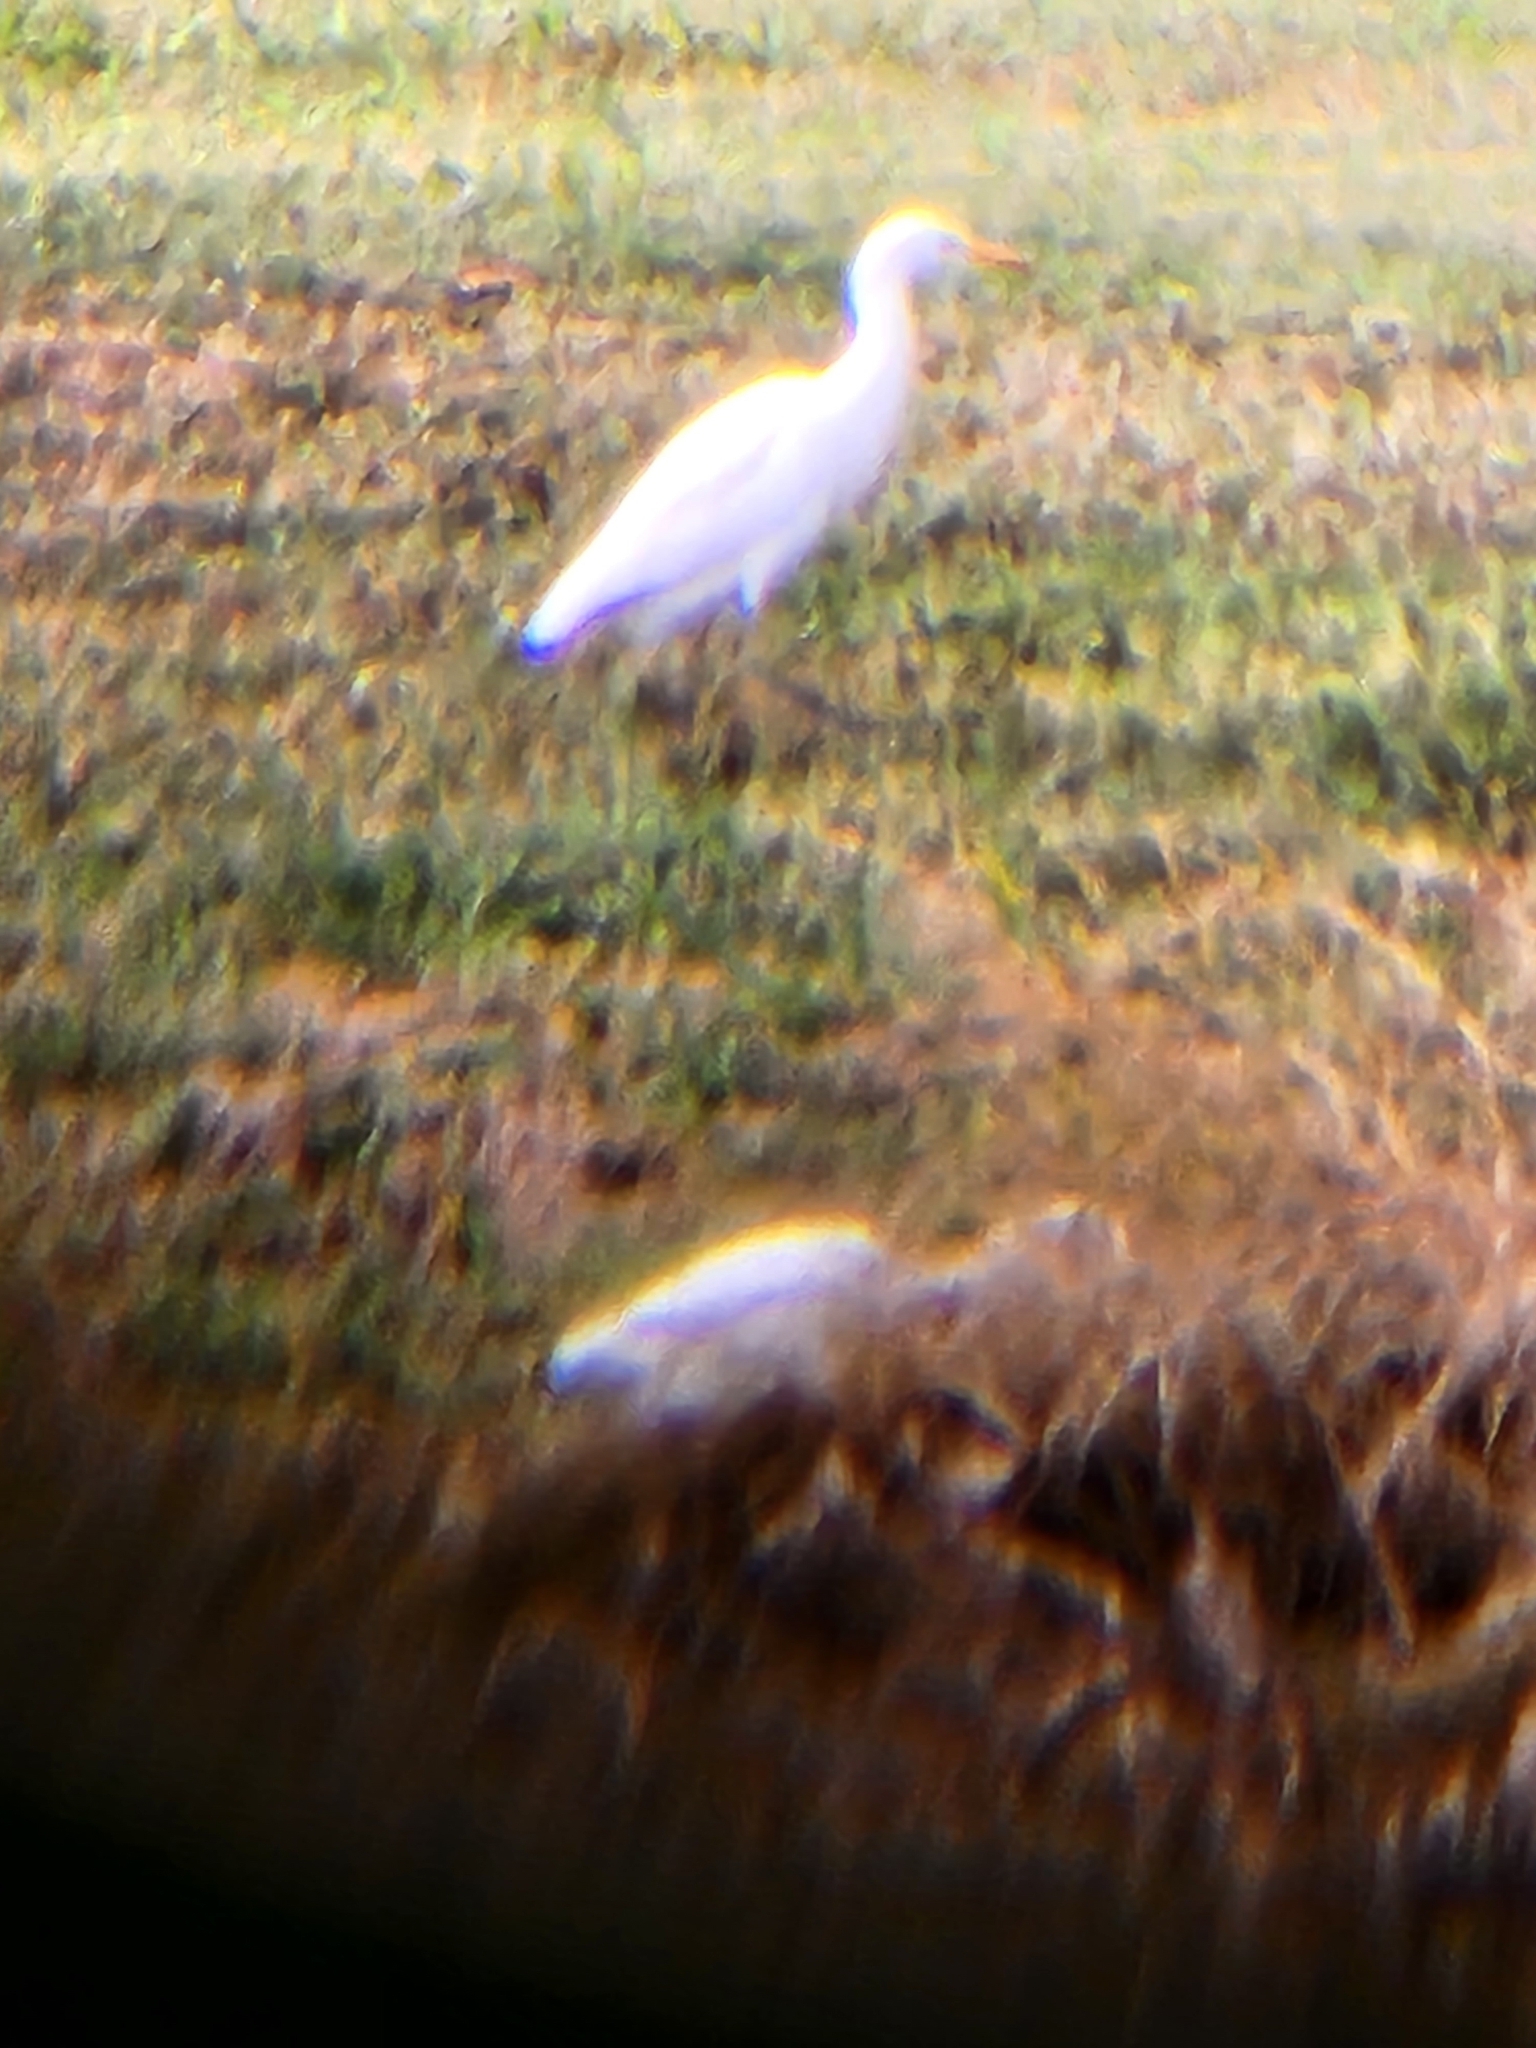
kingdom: Animalia
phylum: Chordata
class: Aves
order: Pelecaniformes
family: Ardeidae
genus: Bubulcus
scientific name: Bubulcus ibis
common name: Cattle egret
